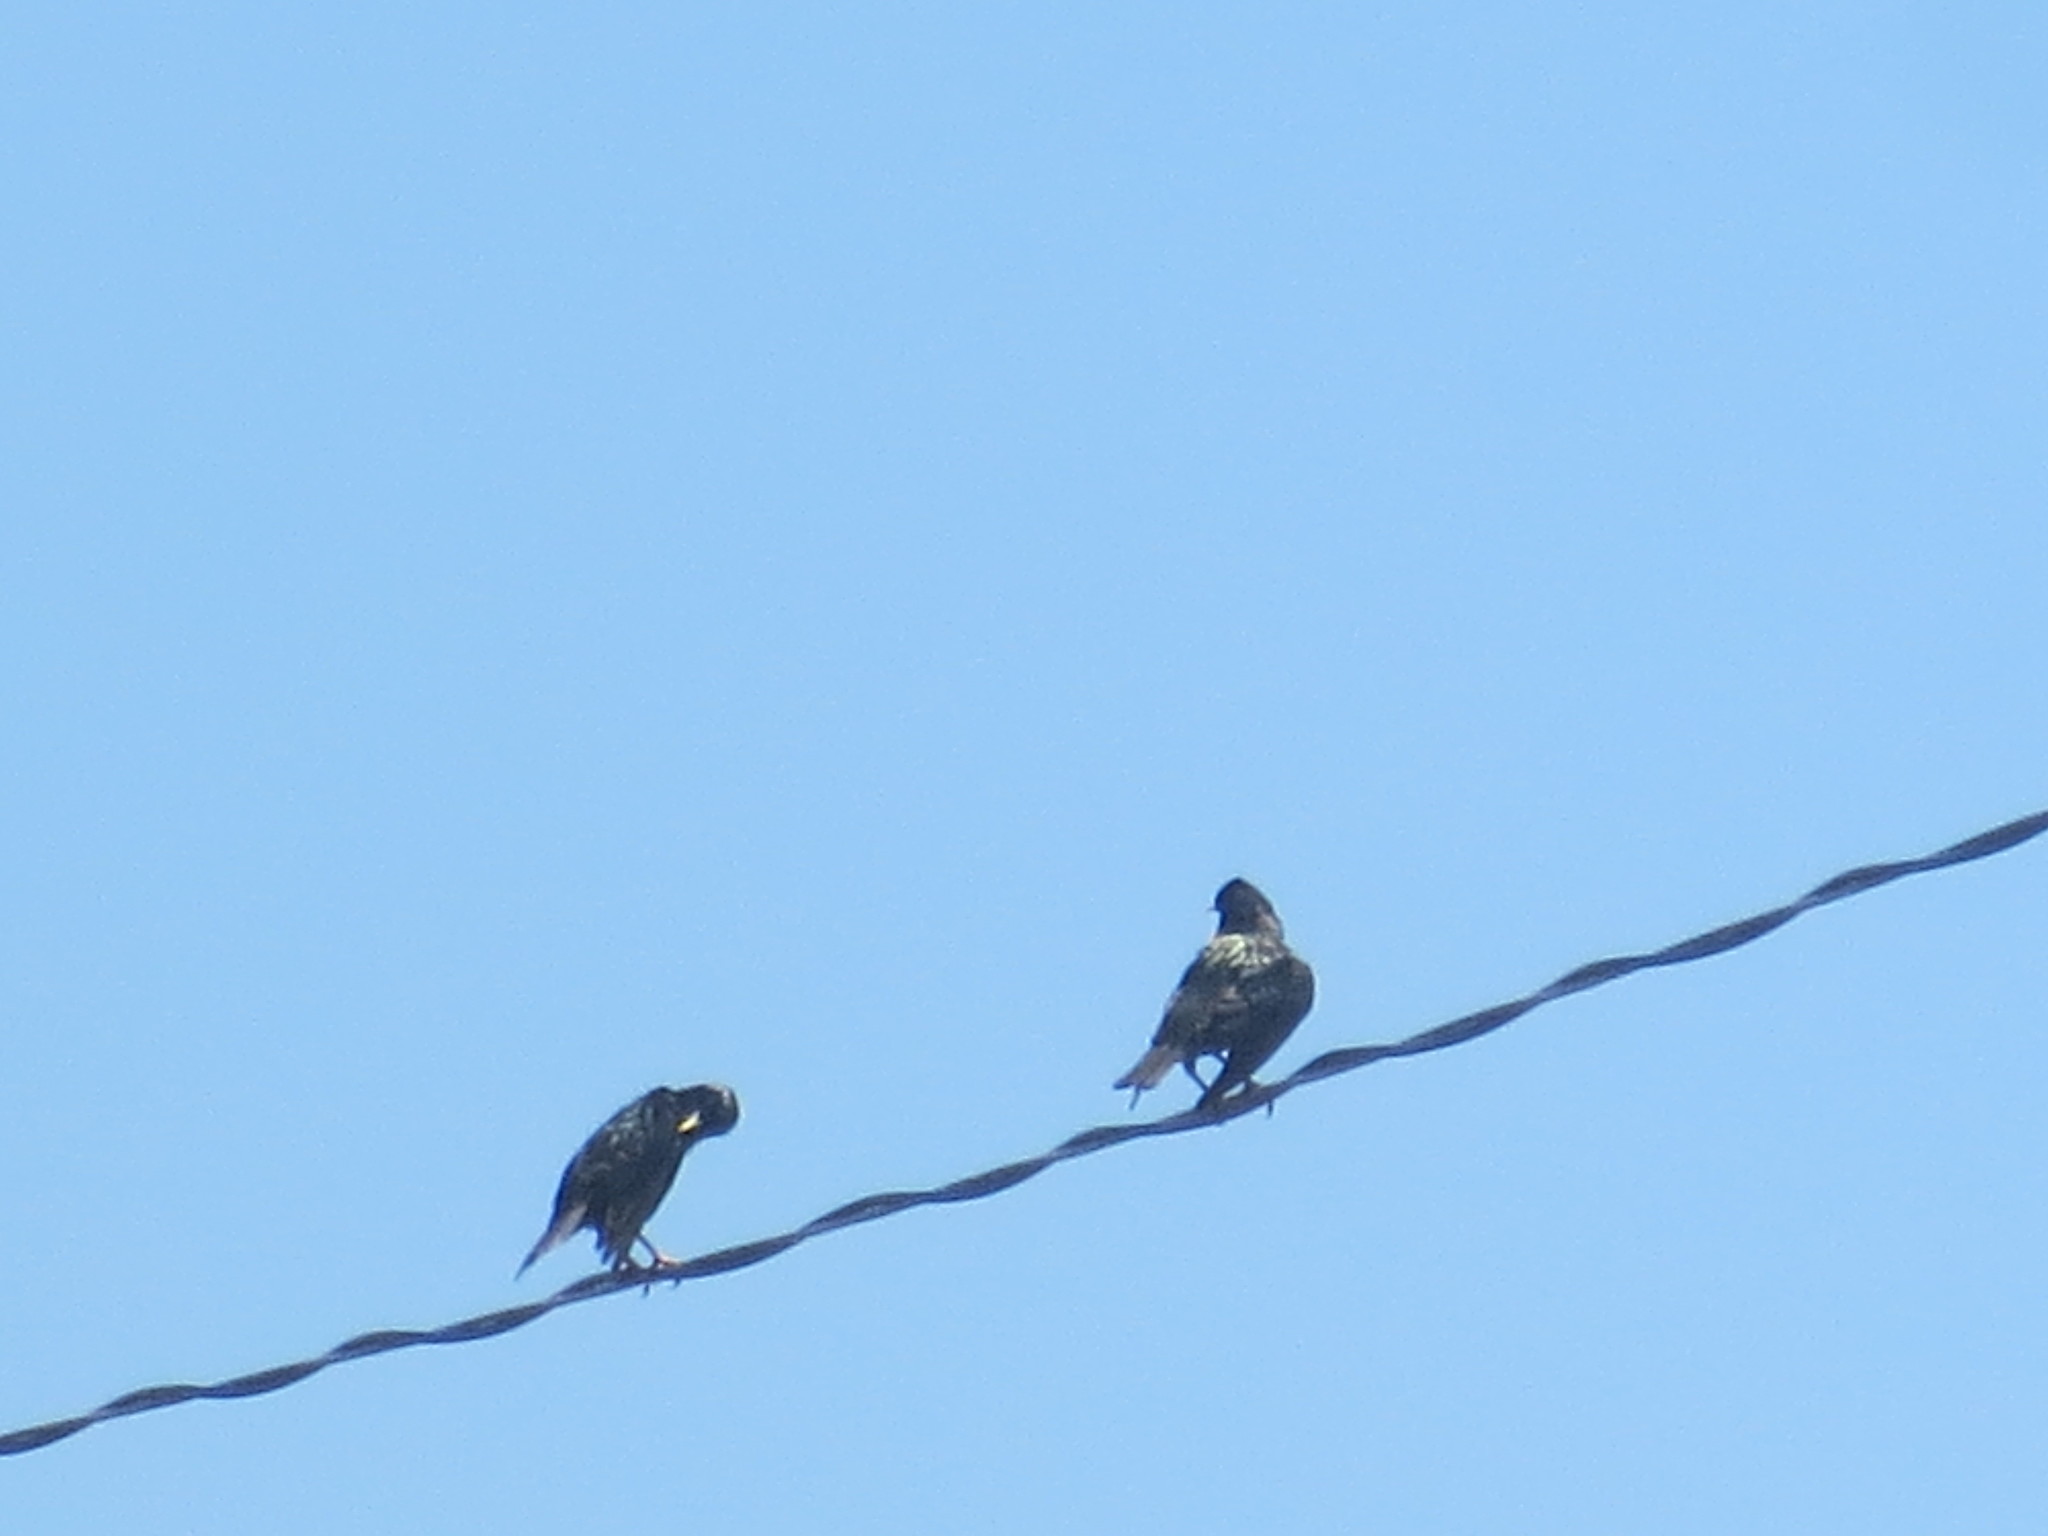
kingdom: Animalia
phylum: Chordata
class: Aves
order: Passeriformes
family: Sturnidae
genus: Sturnus
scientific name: Sturnus vulgaris
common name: Common starling
